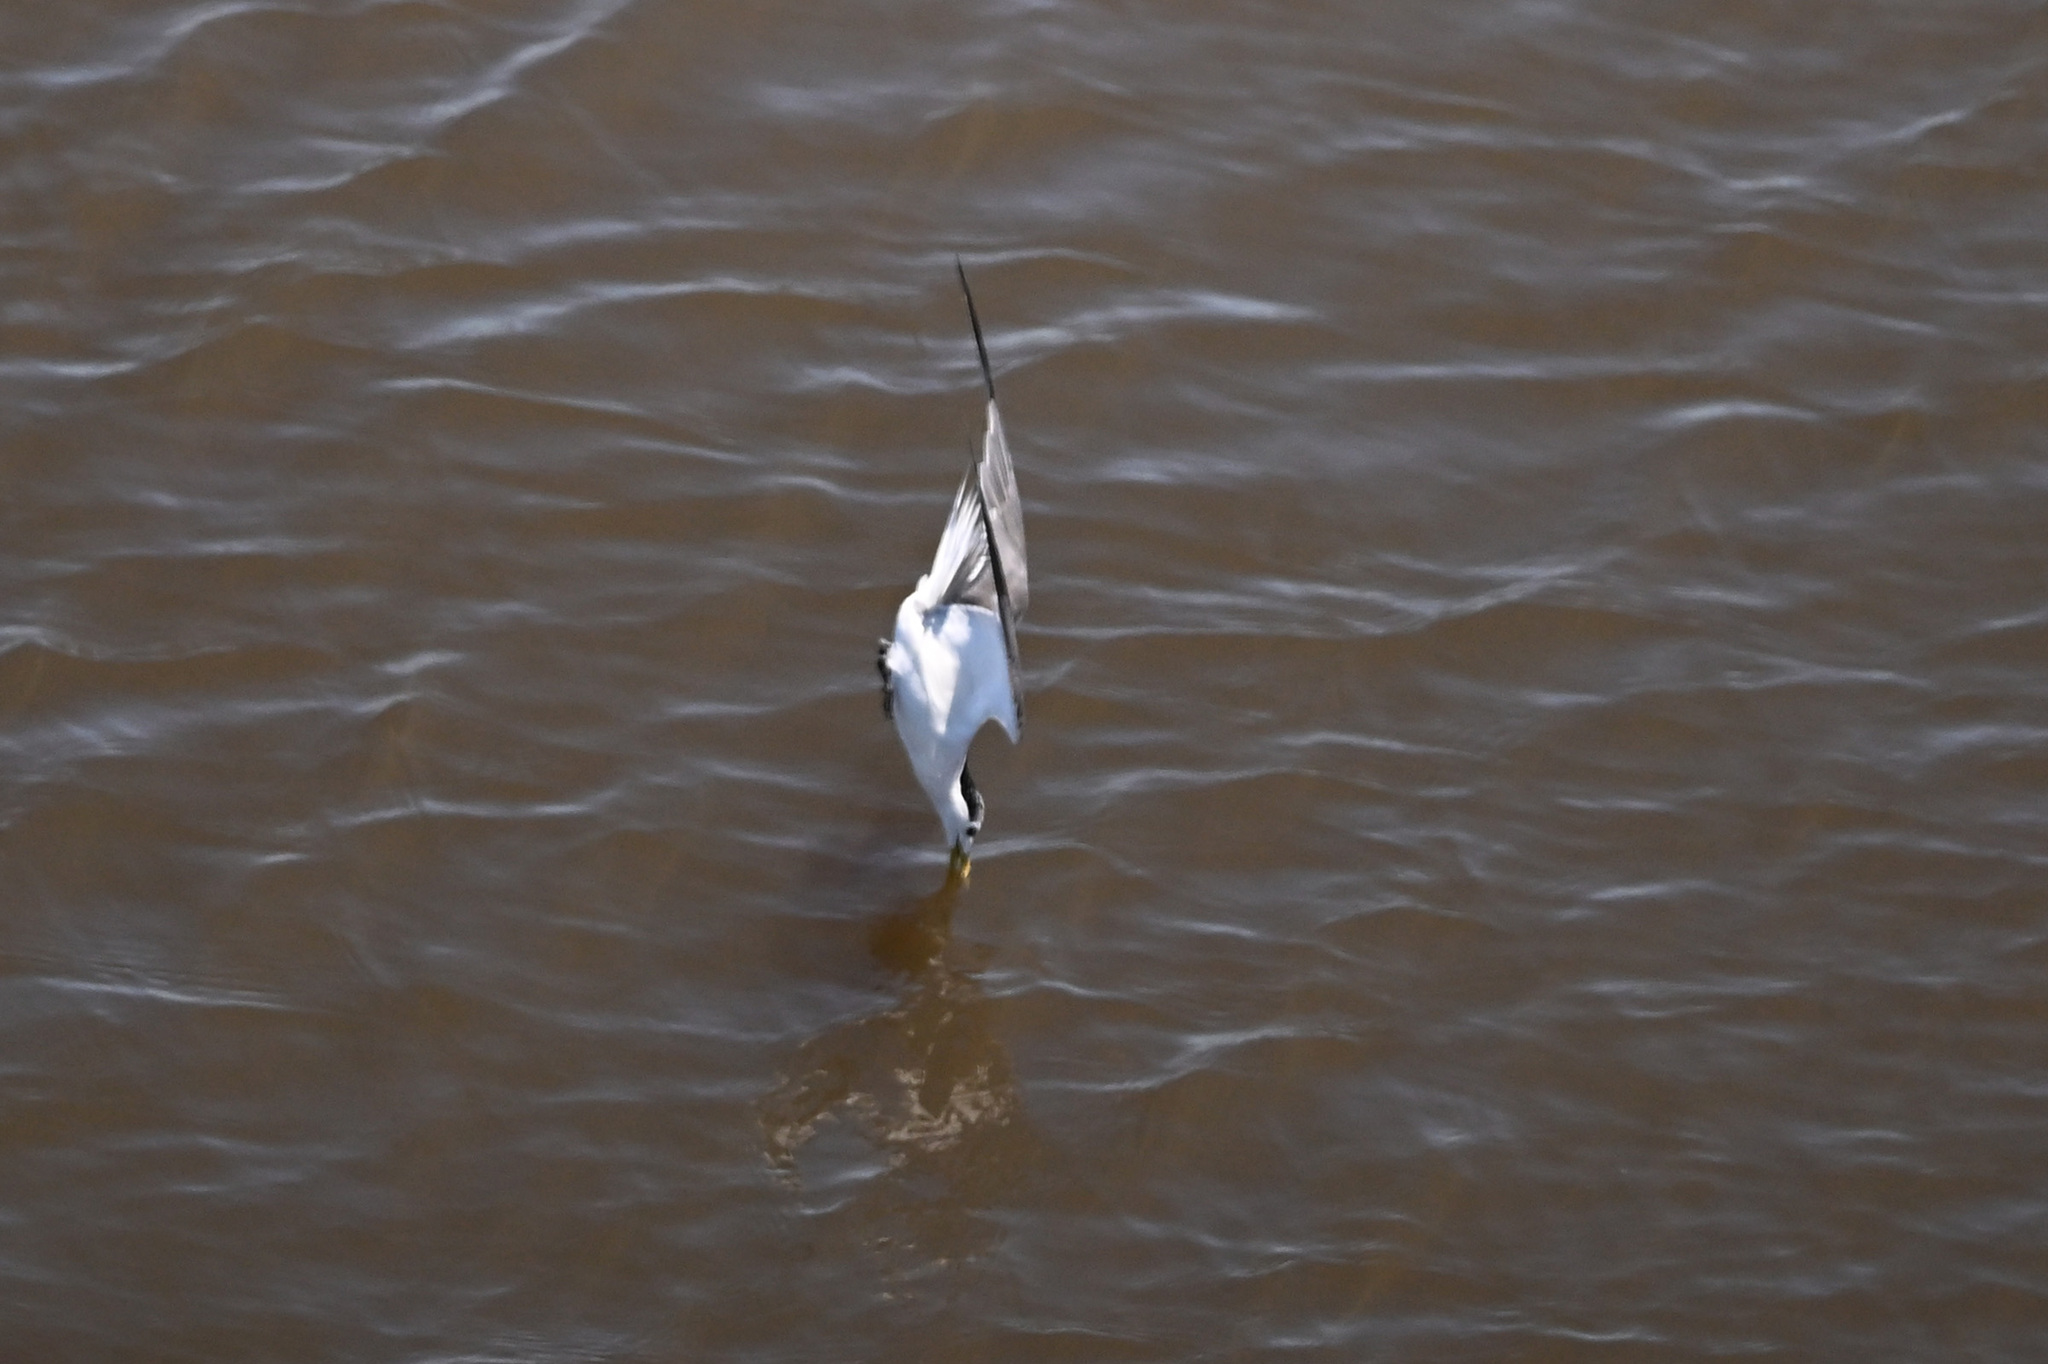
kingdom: Animalia
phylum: Chordata
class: Aves
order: Charadriiformes
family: Laridae
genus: Thalasseus
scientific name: Thalasseus bergii
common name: Greater crested tern
